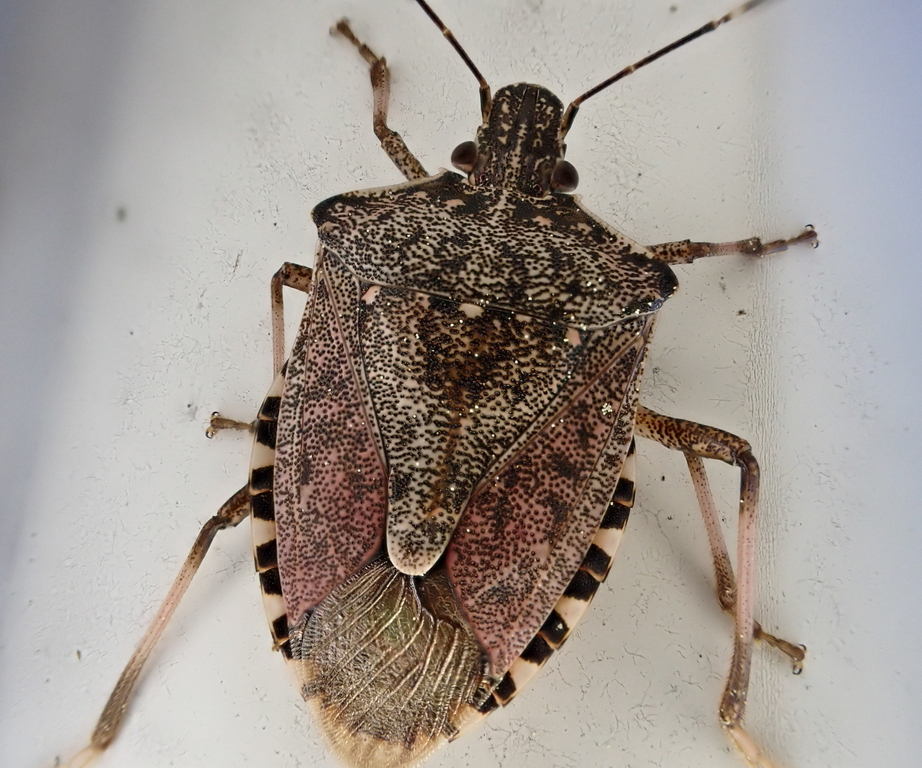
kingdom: Animalia
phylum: Arthropoda
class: Insecta
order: Hemiptera
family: Pentatomidae
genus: Halyomorpha
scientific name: Halyomorpha halys
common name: Brown marmorated stink bug
